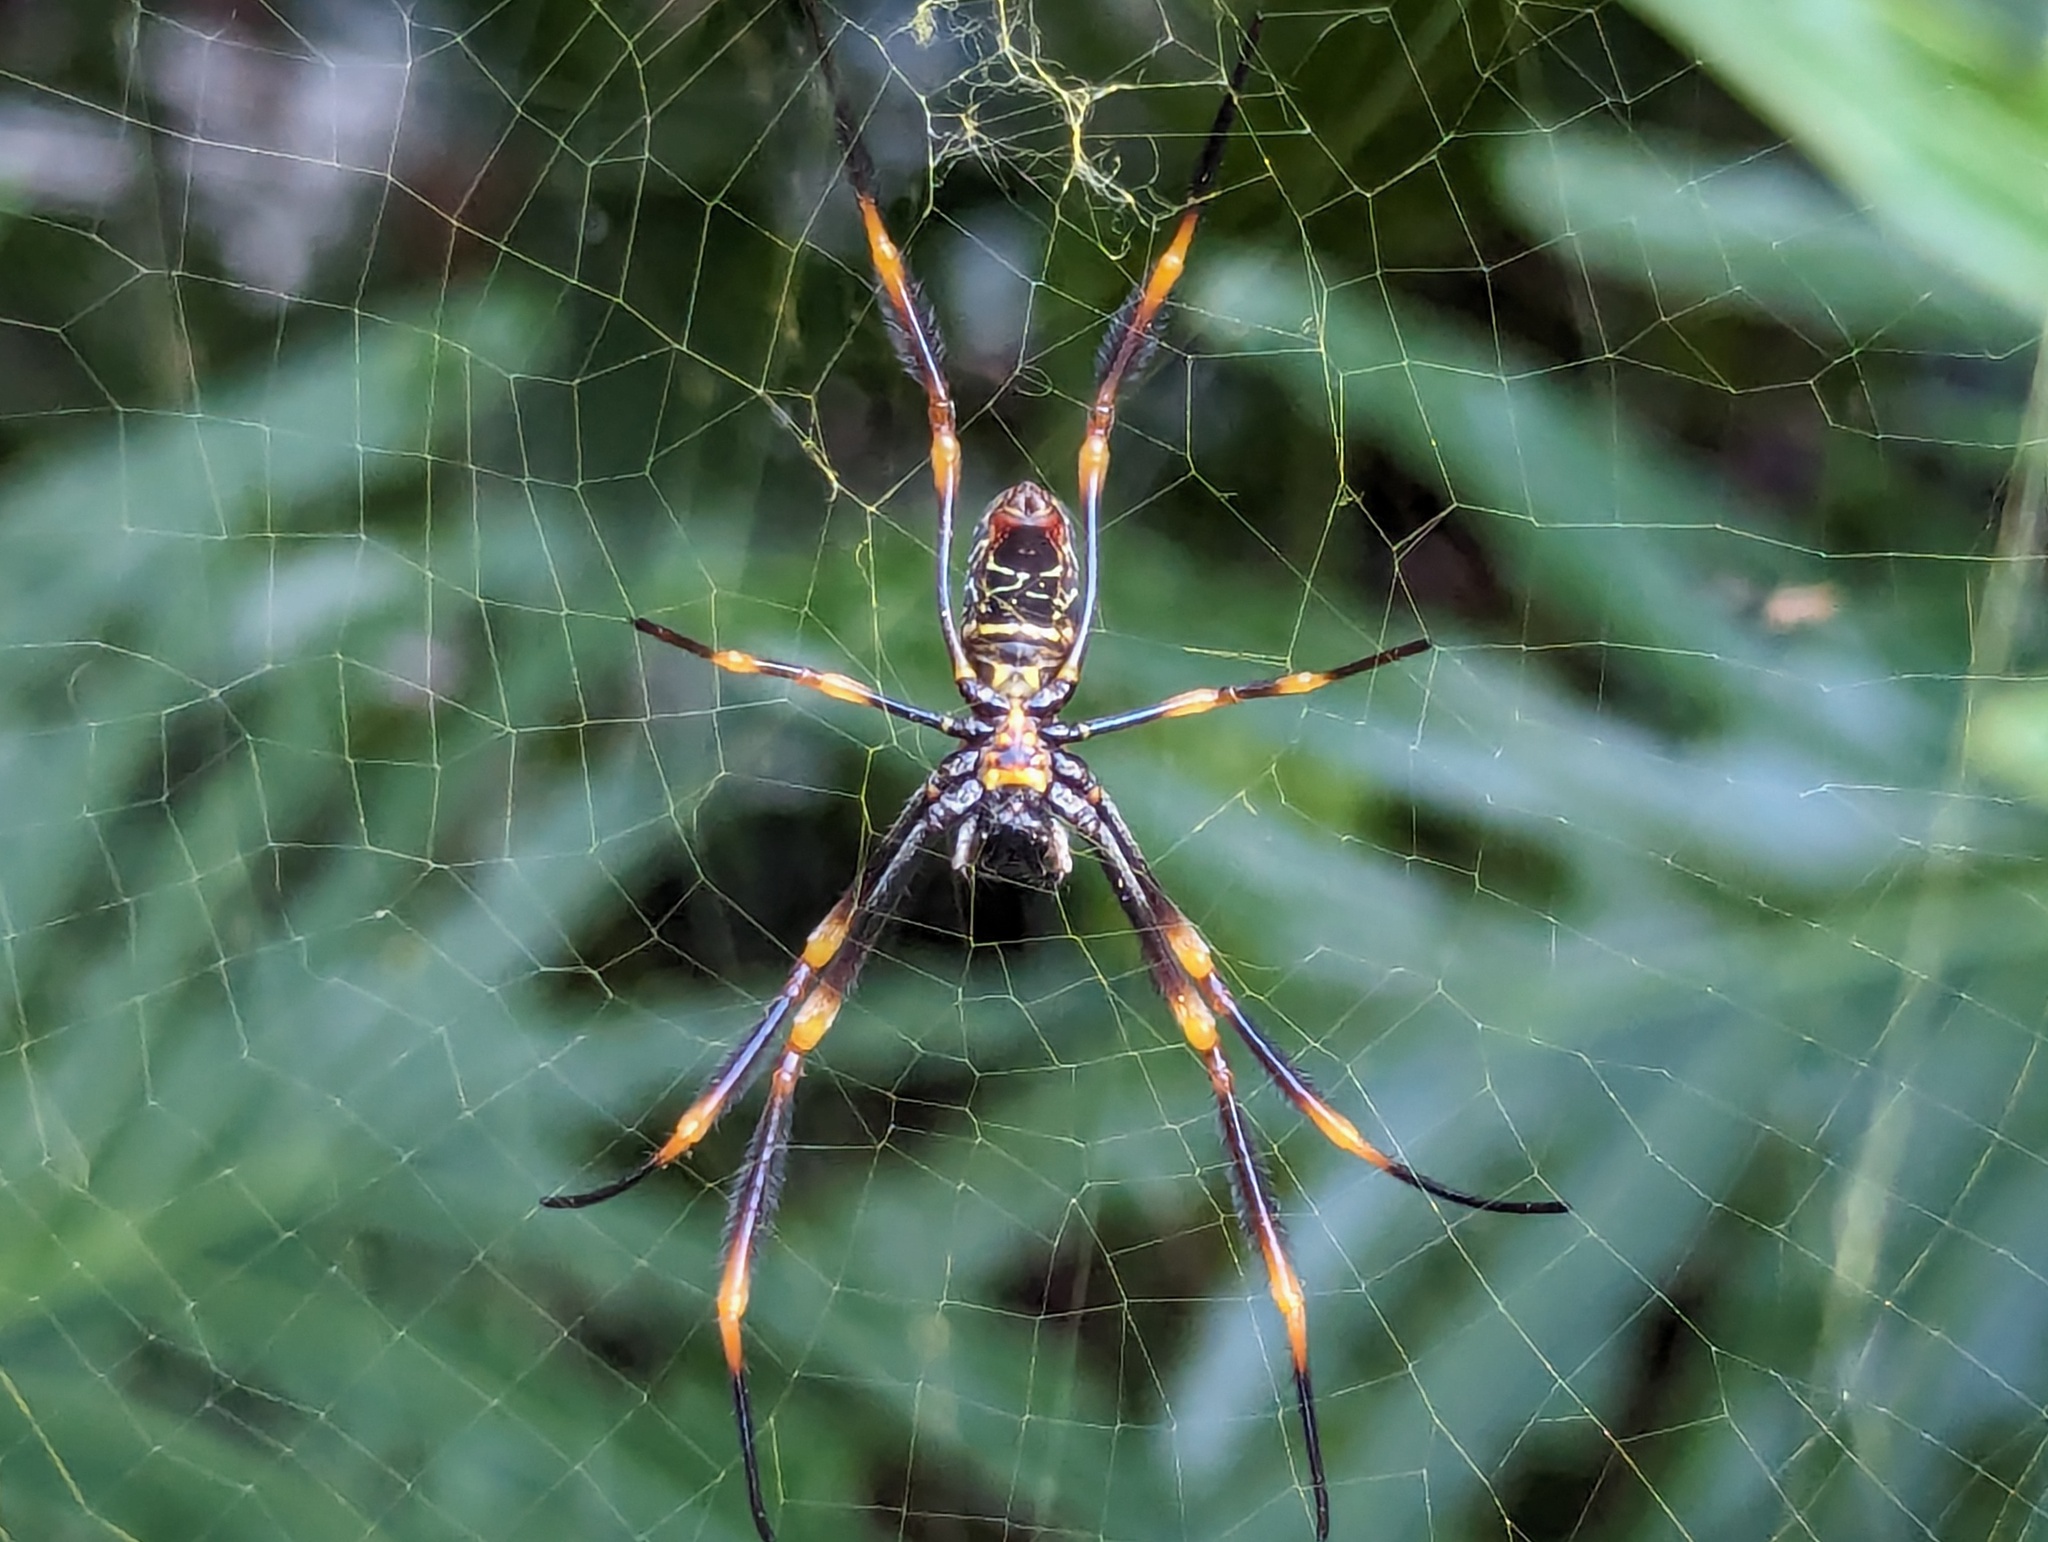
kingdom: Animalia
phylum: Arthropoda
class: Arachnida
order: Araneae
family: Araneidae
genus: Trichonephila
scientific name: Trichonephila plumipes
